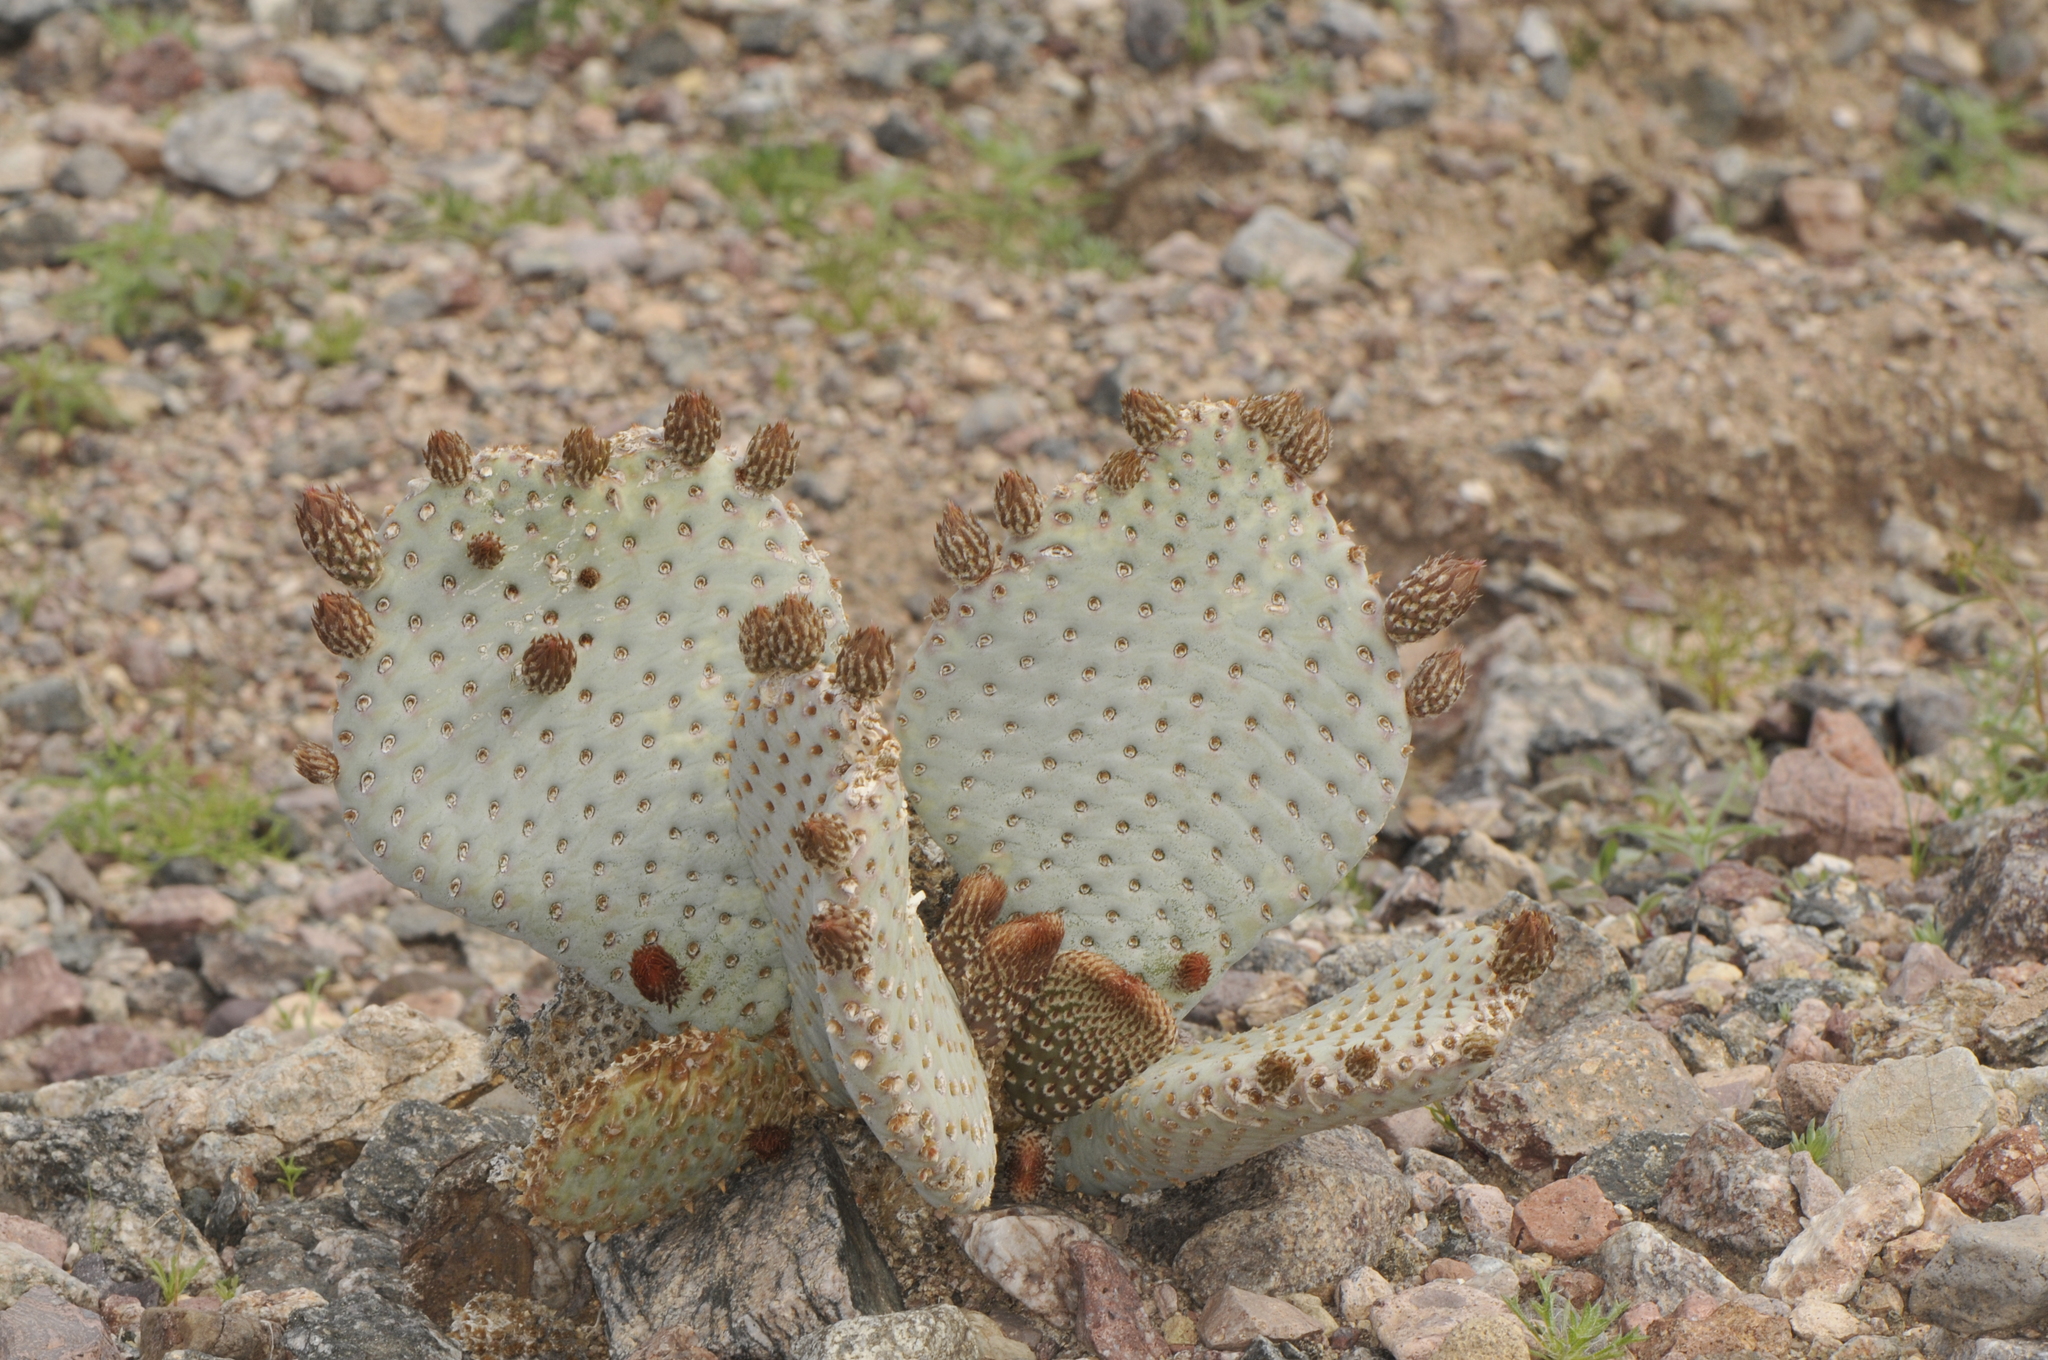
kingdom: Plantae
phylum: Tracheophyta
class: Magnoliopsida
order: Caryophyllales
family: Cactaceae
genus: Opuntia
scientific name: Opuntia basilaris
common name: Beavertail prickly-pear
